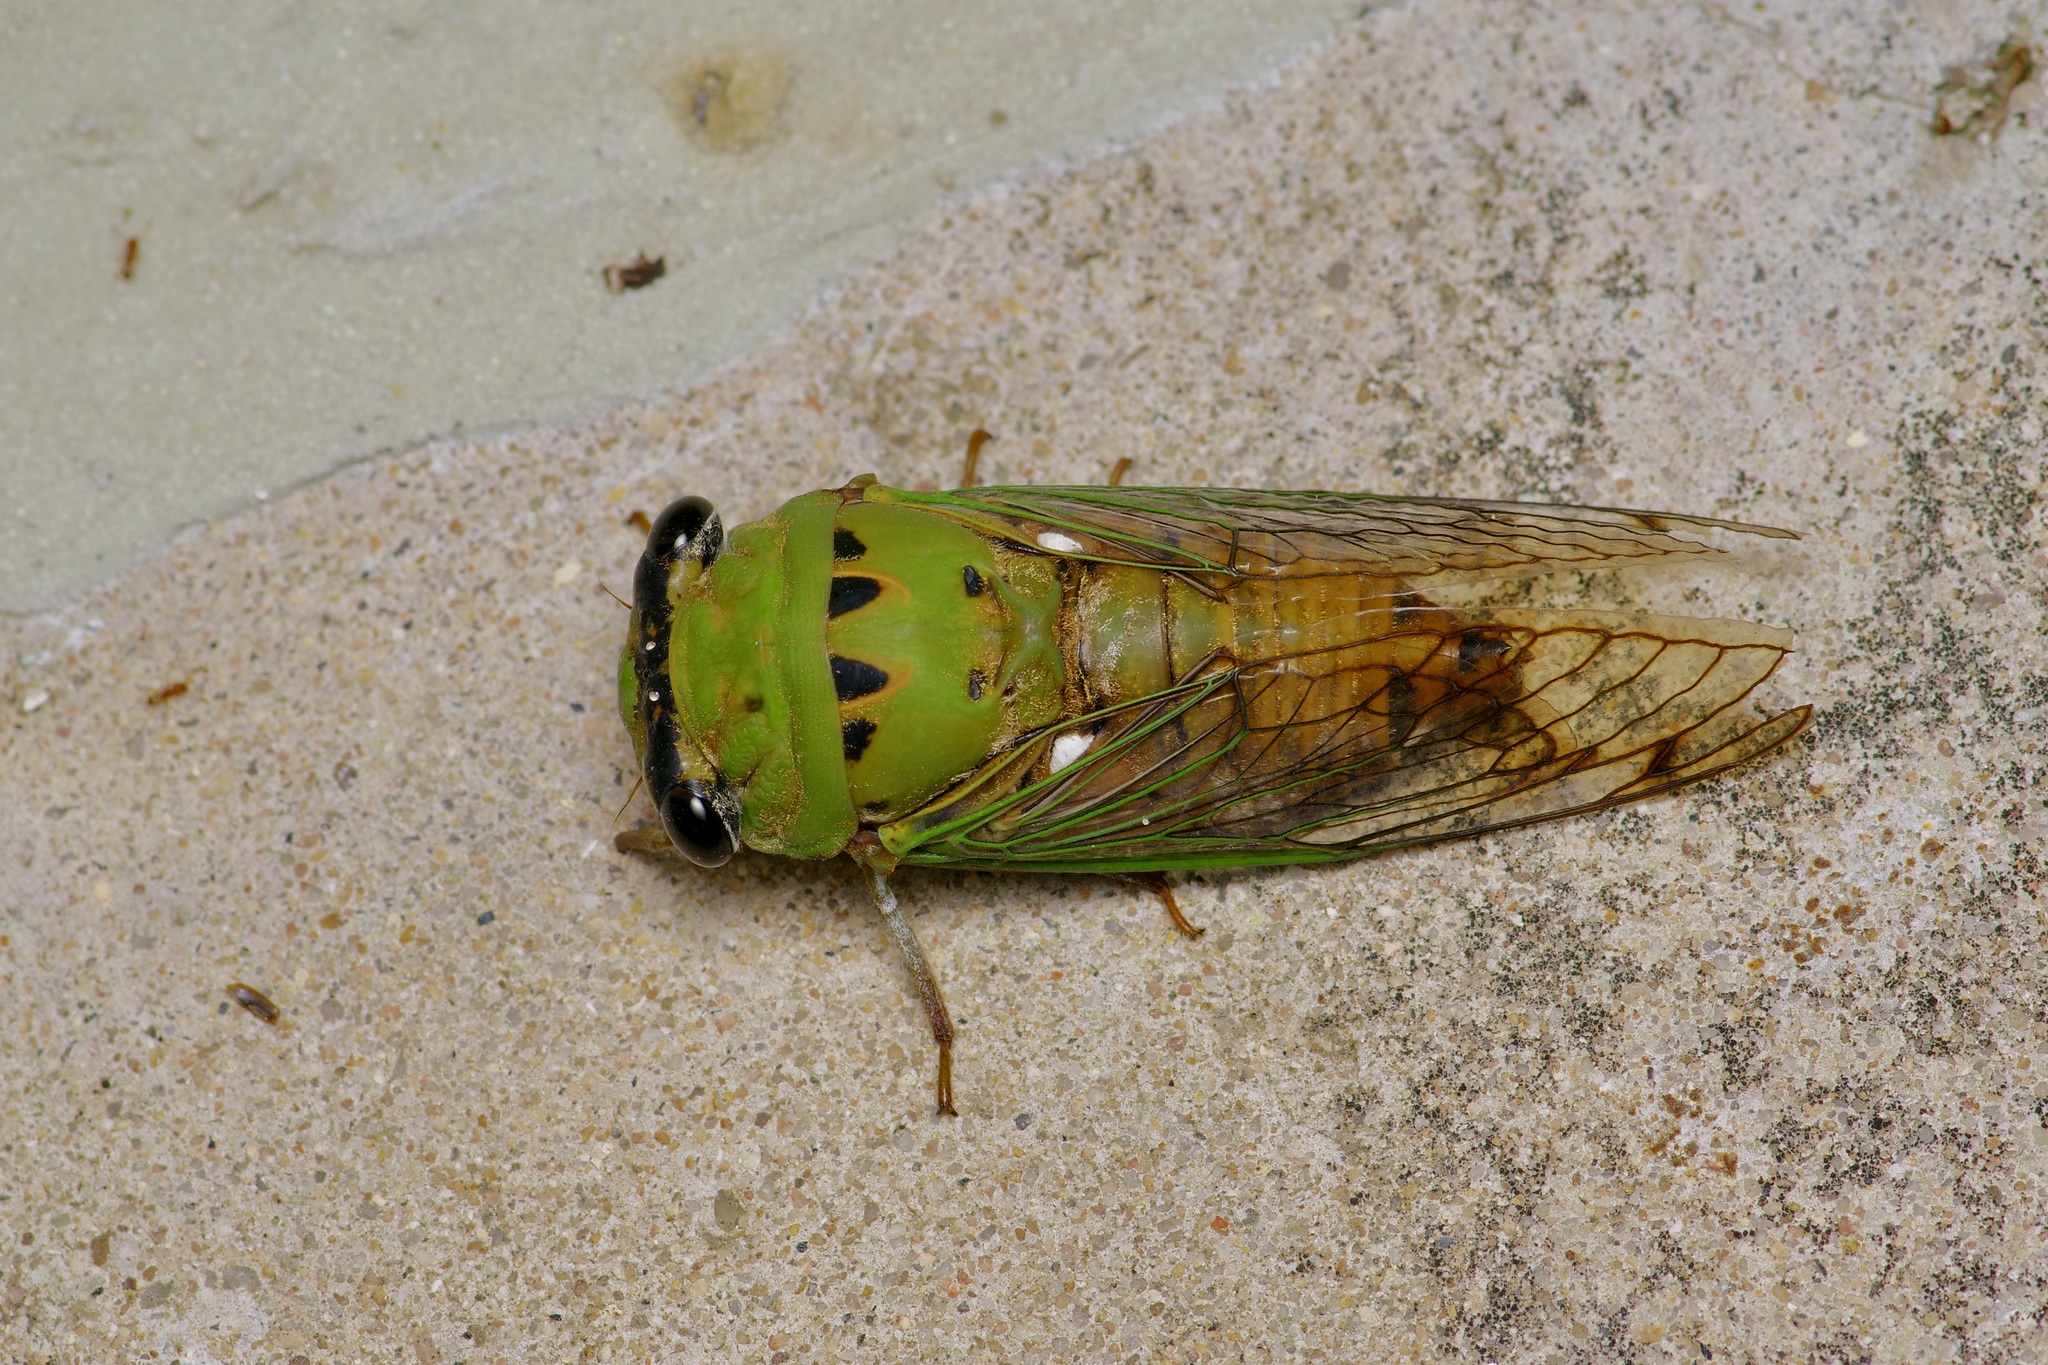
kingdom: Animalia
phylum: Arthropoda
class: Insecta
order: Hemiptera
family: Cicadidae
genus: Neotibicen
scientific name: Neotibicen superbus
